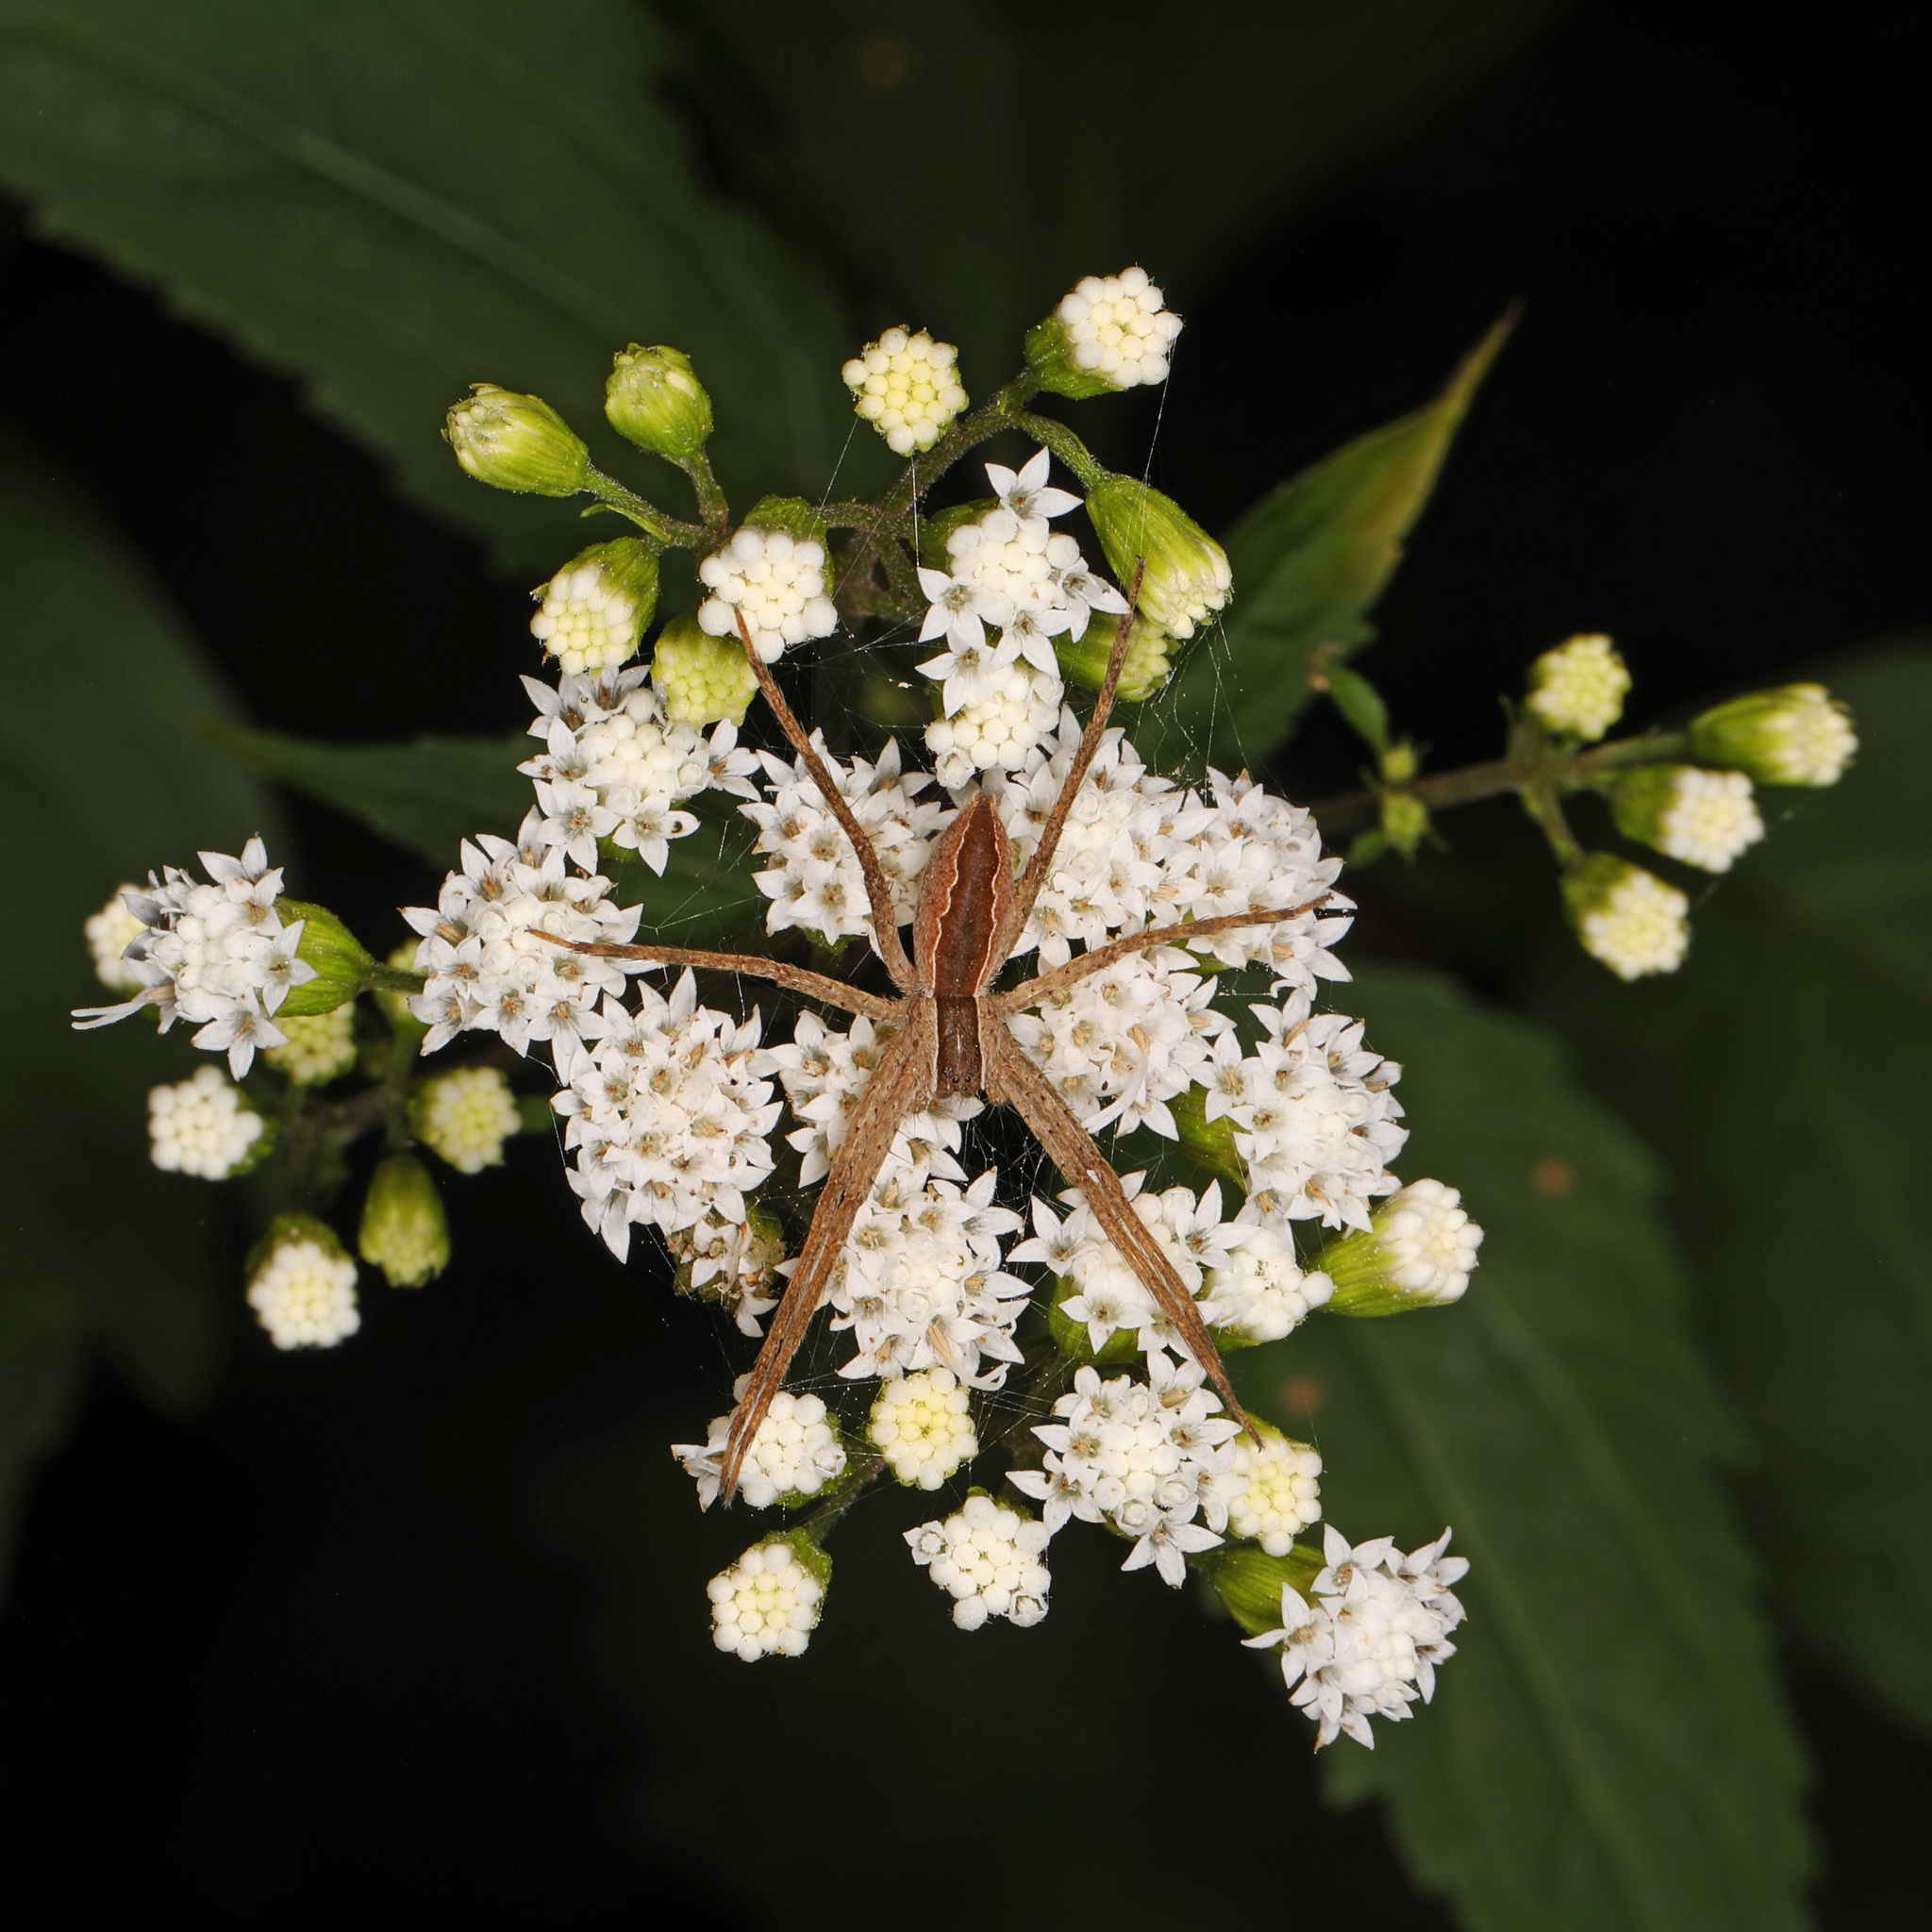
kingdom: Animalia
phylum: Arthropoda
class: Arachnida
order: Araneae
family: Pisauridae
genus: Pisaurina
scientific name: Pisaurina mira
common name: American nursery web spider
